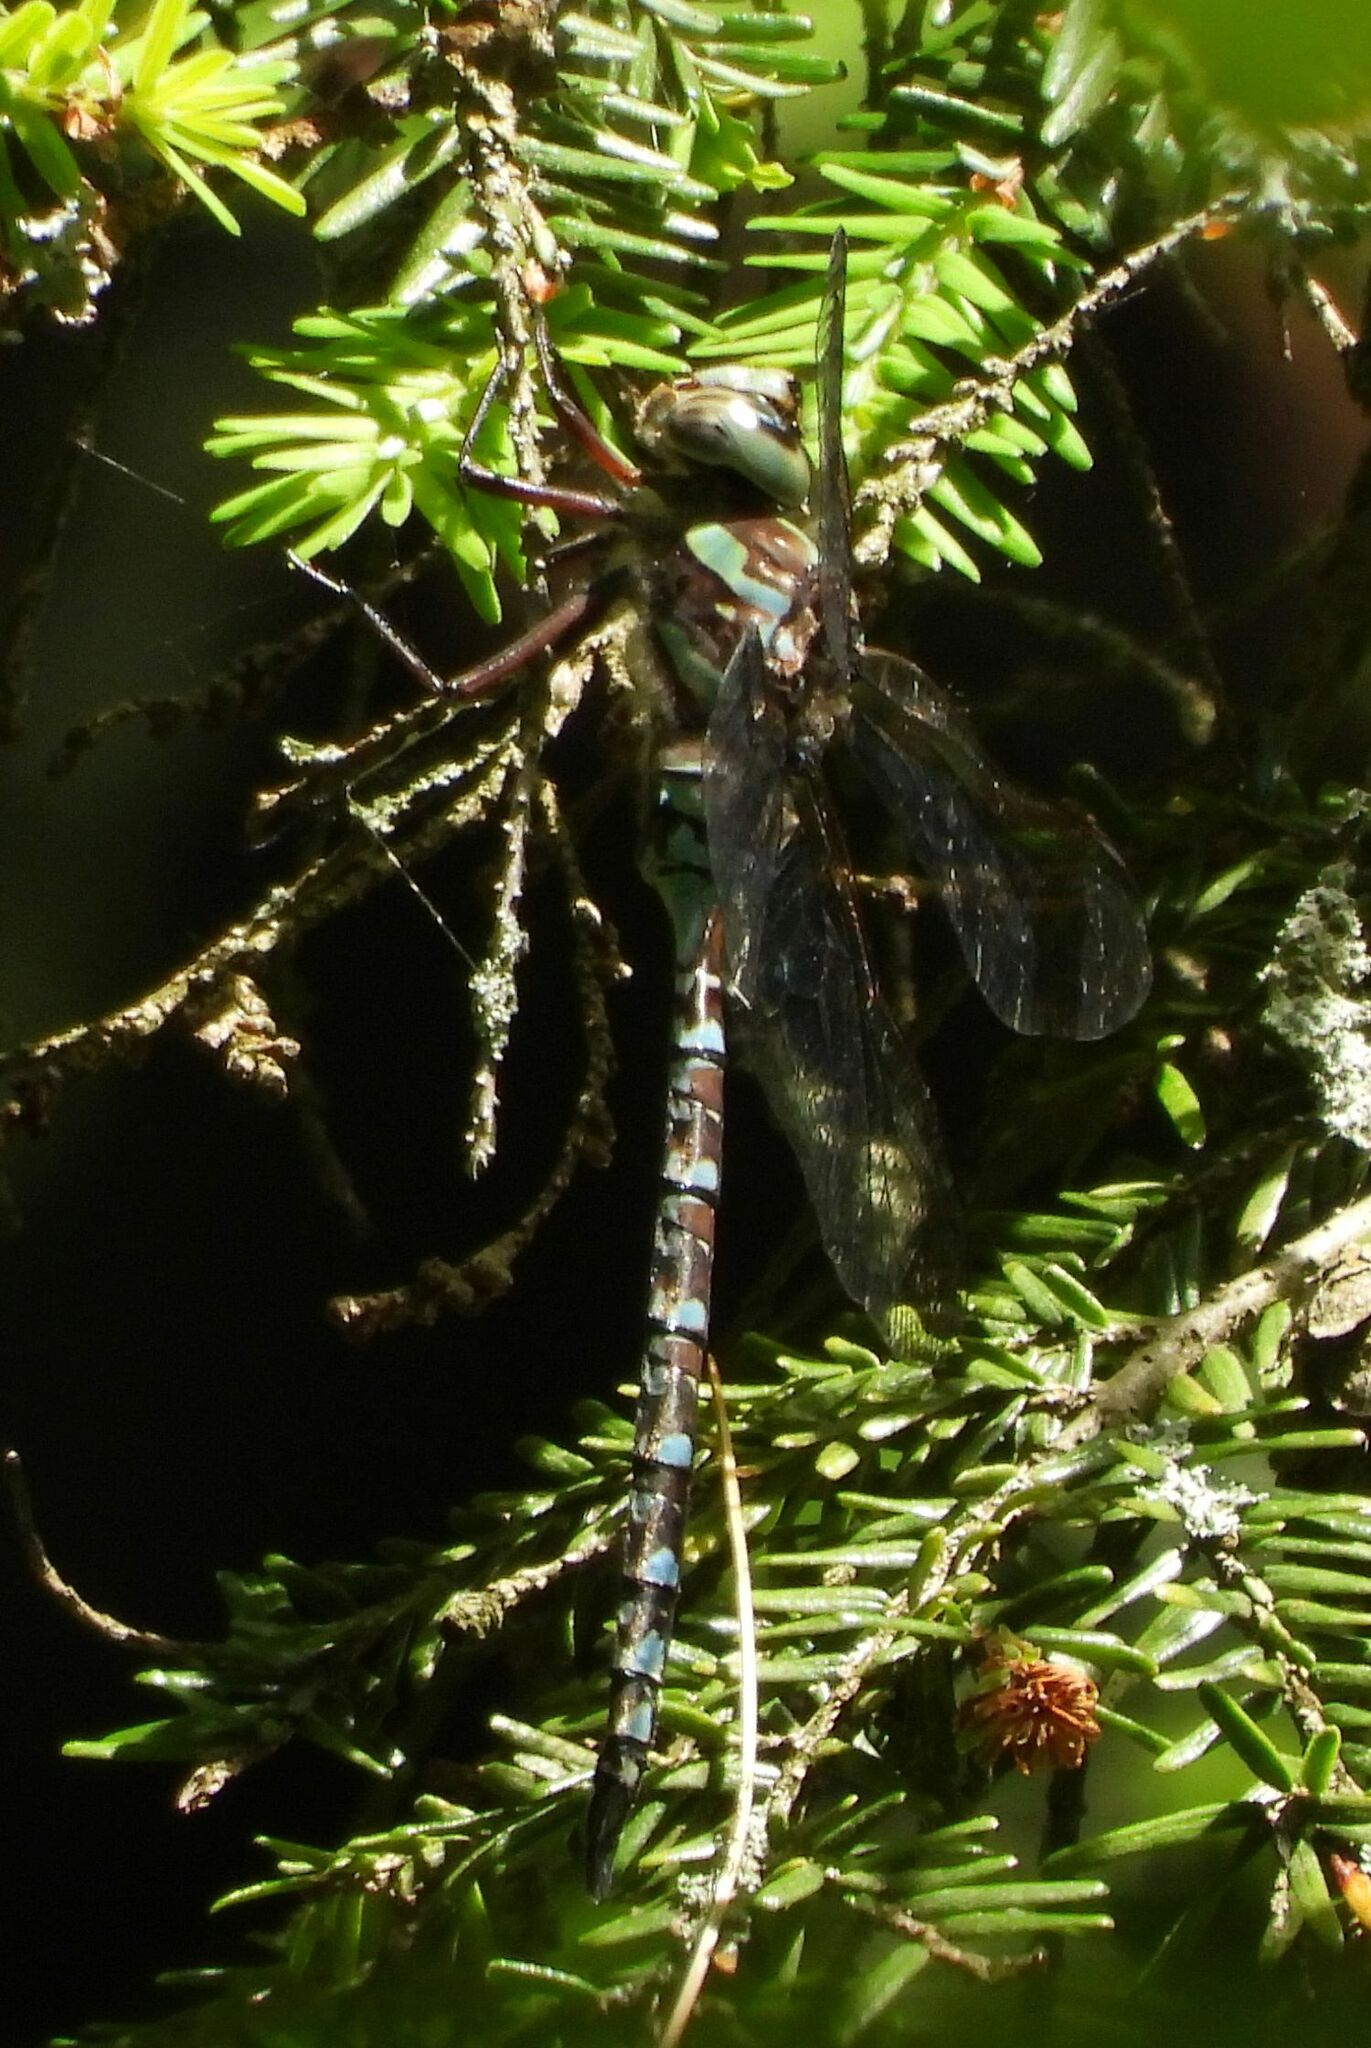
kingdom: Animalia
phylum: Arthropoda
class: Insecta
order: Odonata
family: Aeshnidae
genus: Aeshna
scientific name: Aeshna canadensis
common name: Canada darner
